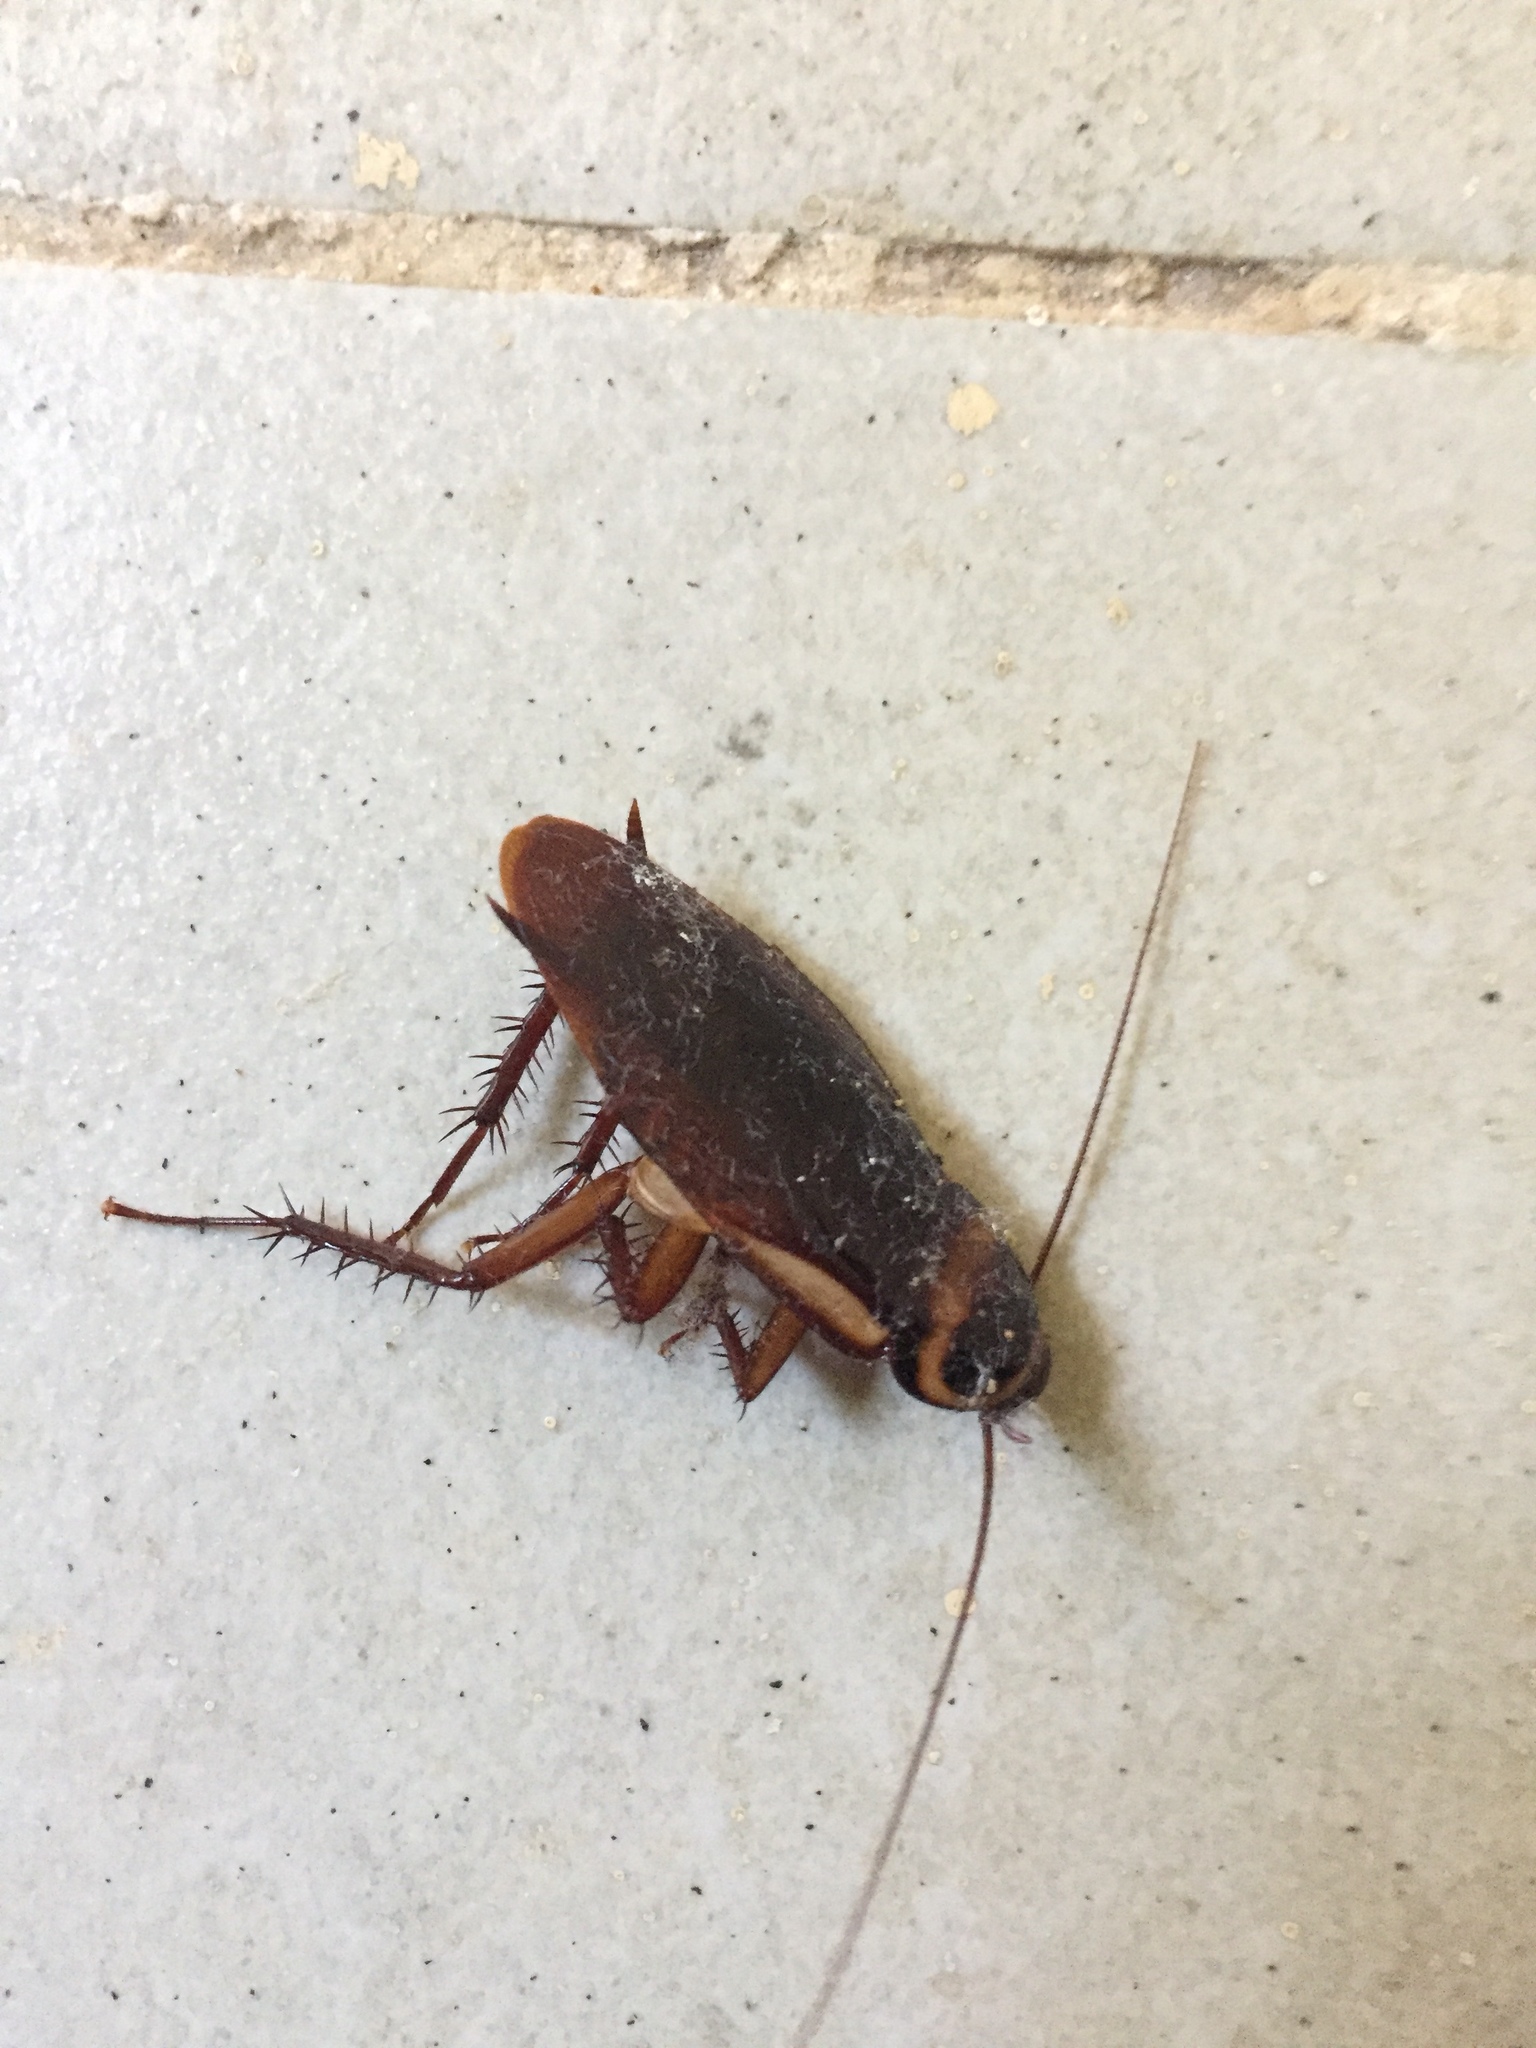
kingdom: Animalia
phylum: Arthropoda
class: Insecta
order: Blattodea
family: Blattidae
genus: Periplaneta
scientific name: Periplaneta australasiae
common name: Australian cockroach
